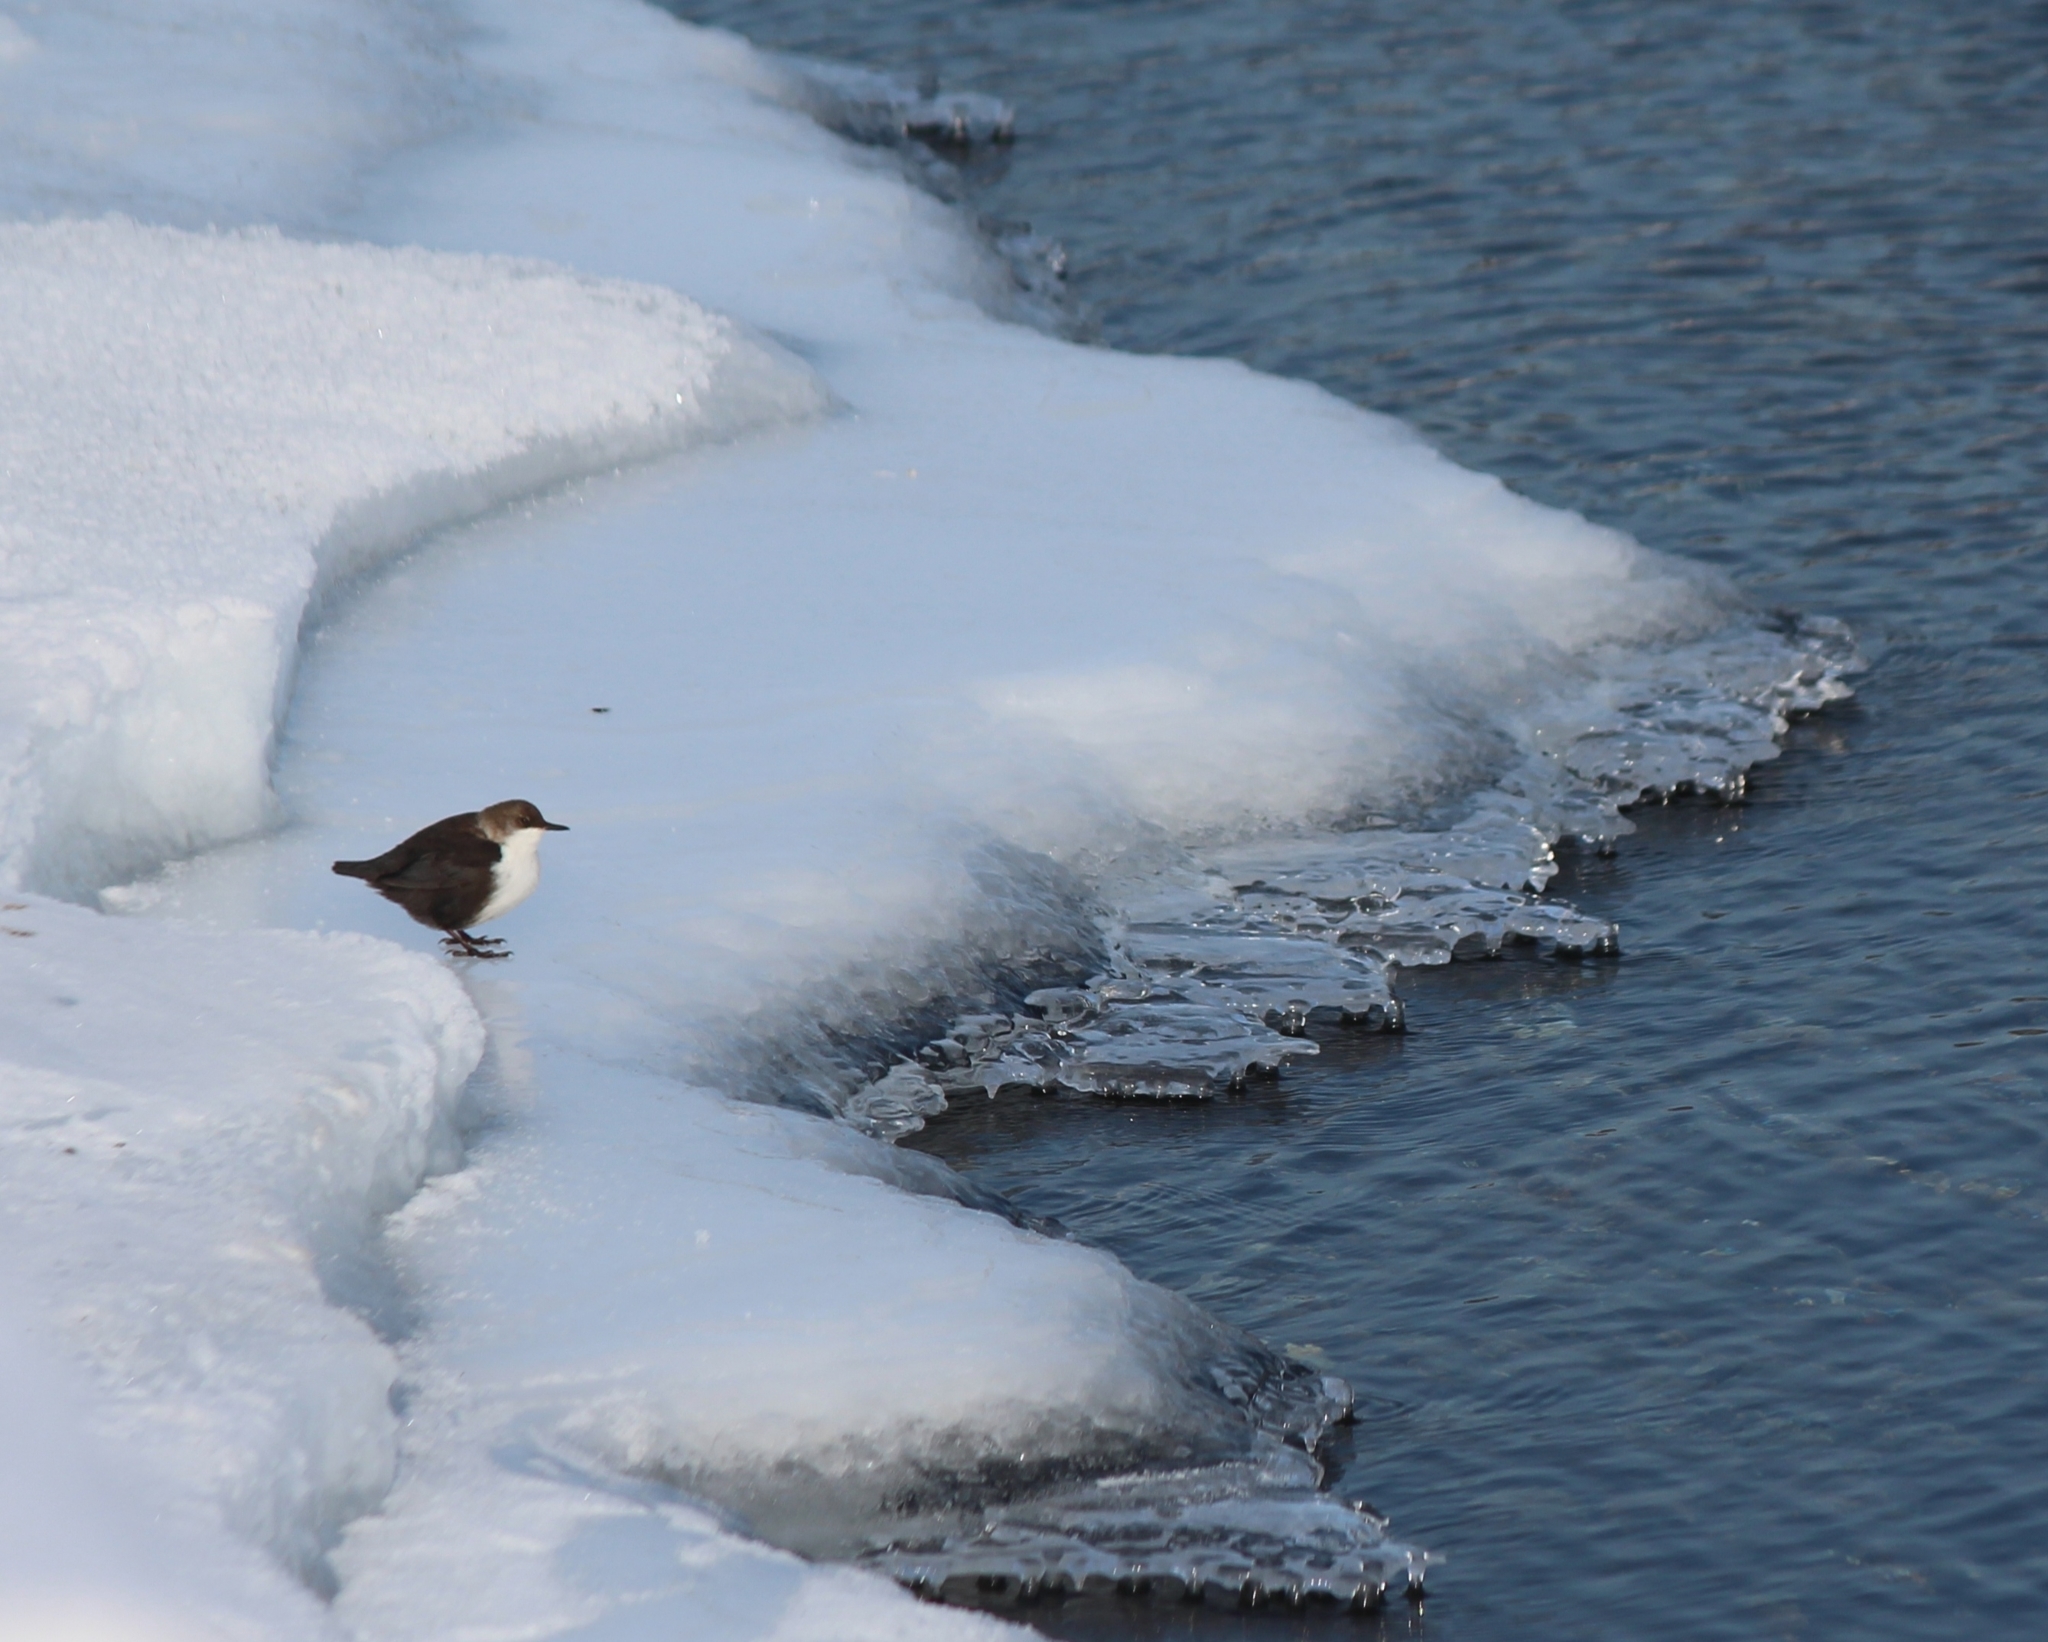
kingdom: Animalia
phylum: Chordata
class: Aves
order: Passeriformes
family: Cinclidae
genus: Cinclus
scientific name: Cinclus cinclus
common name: White-throated dipper
